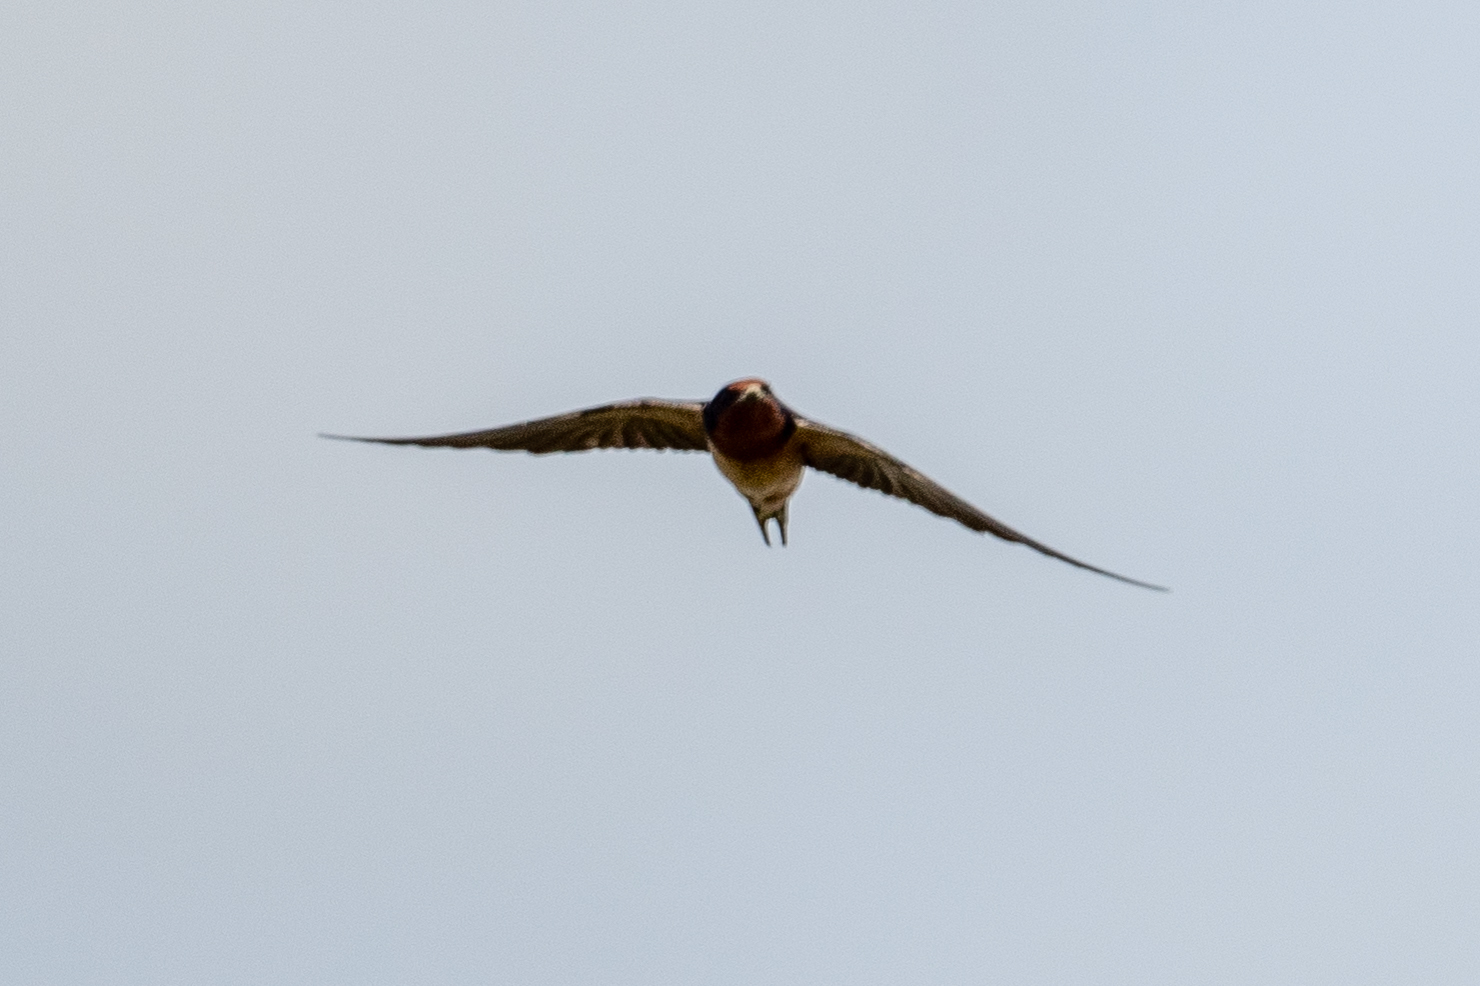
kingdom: Animalia
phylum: Chordata
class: Aves
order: Passeriformes
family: Hirundinidae
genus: Hirundo
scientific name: Hirundo rustica
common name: Barn swallow
